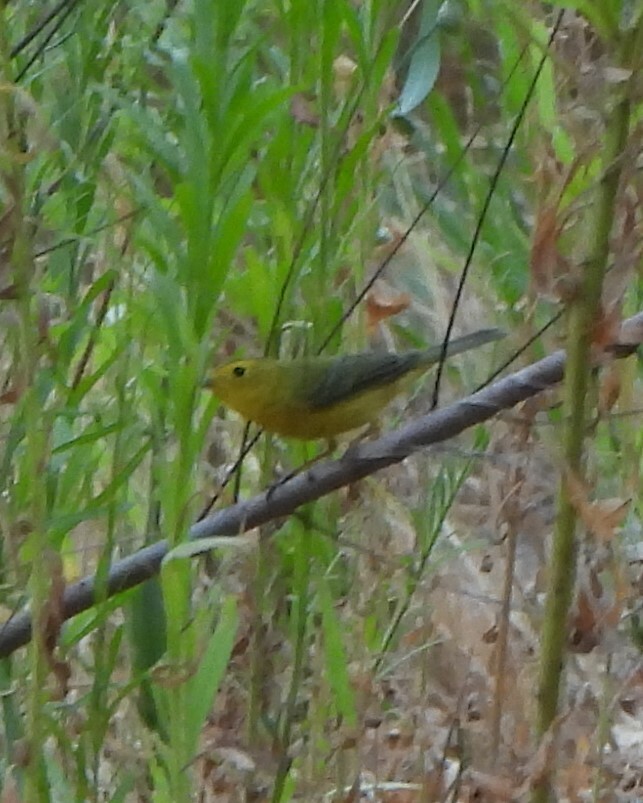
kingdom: Animalia
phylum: Chordata
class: Aves
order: Passeriformes
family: Parulidae
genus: Cardellina
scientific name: Cardellina pusilla
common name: Wilson's warbler
